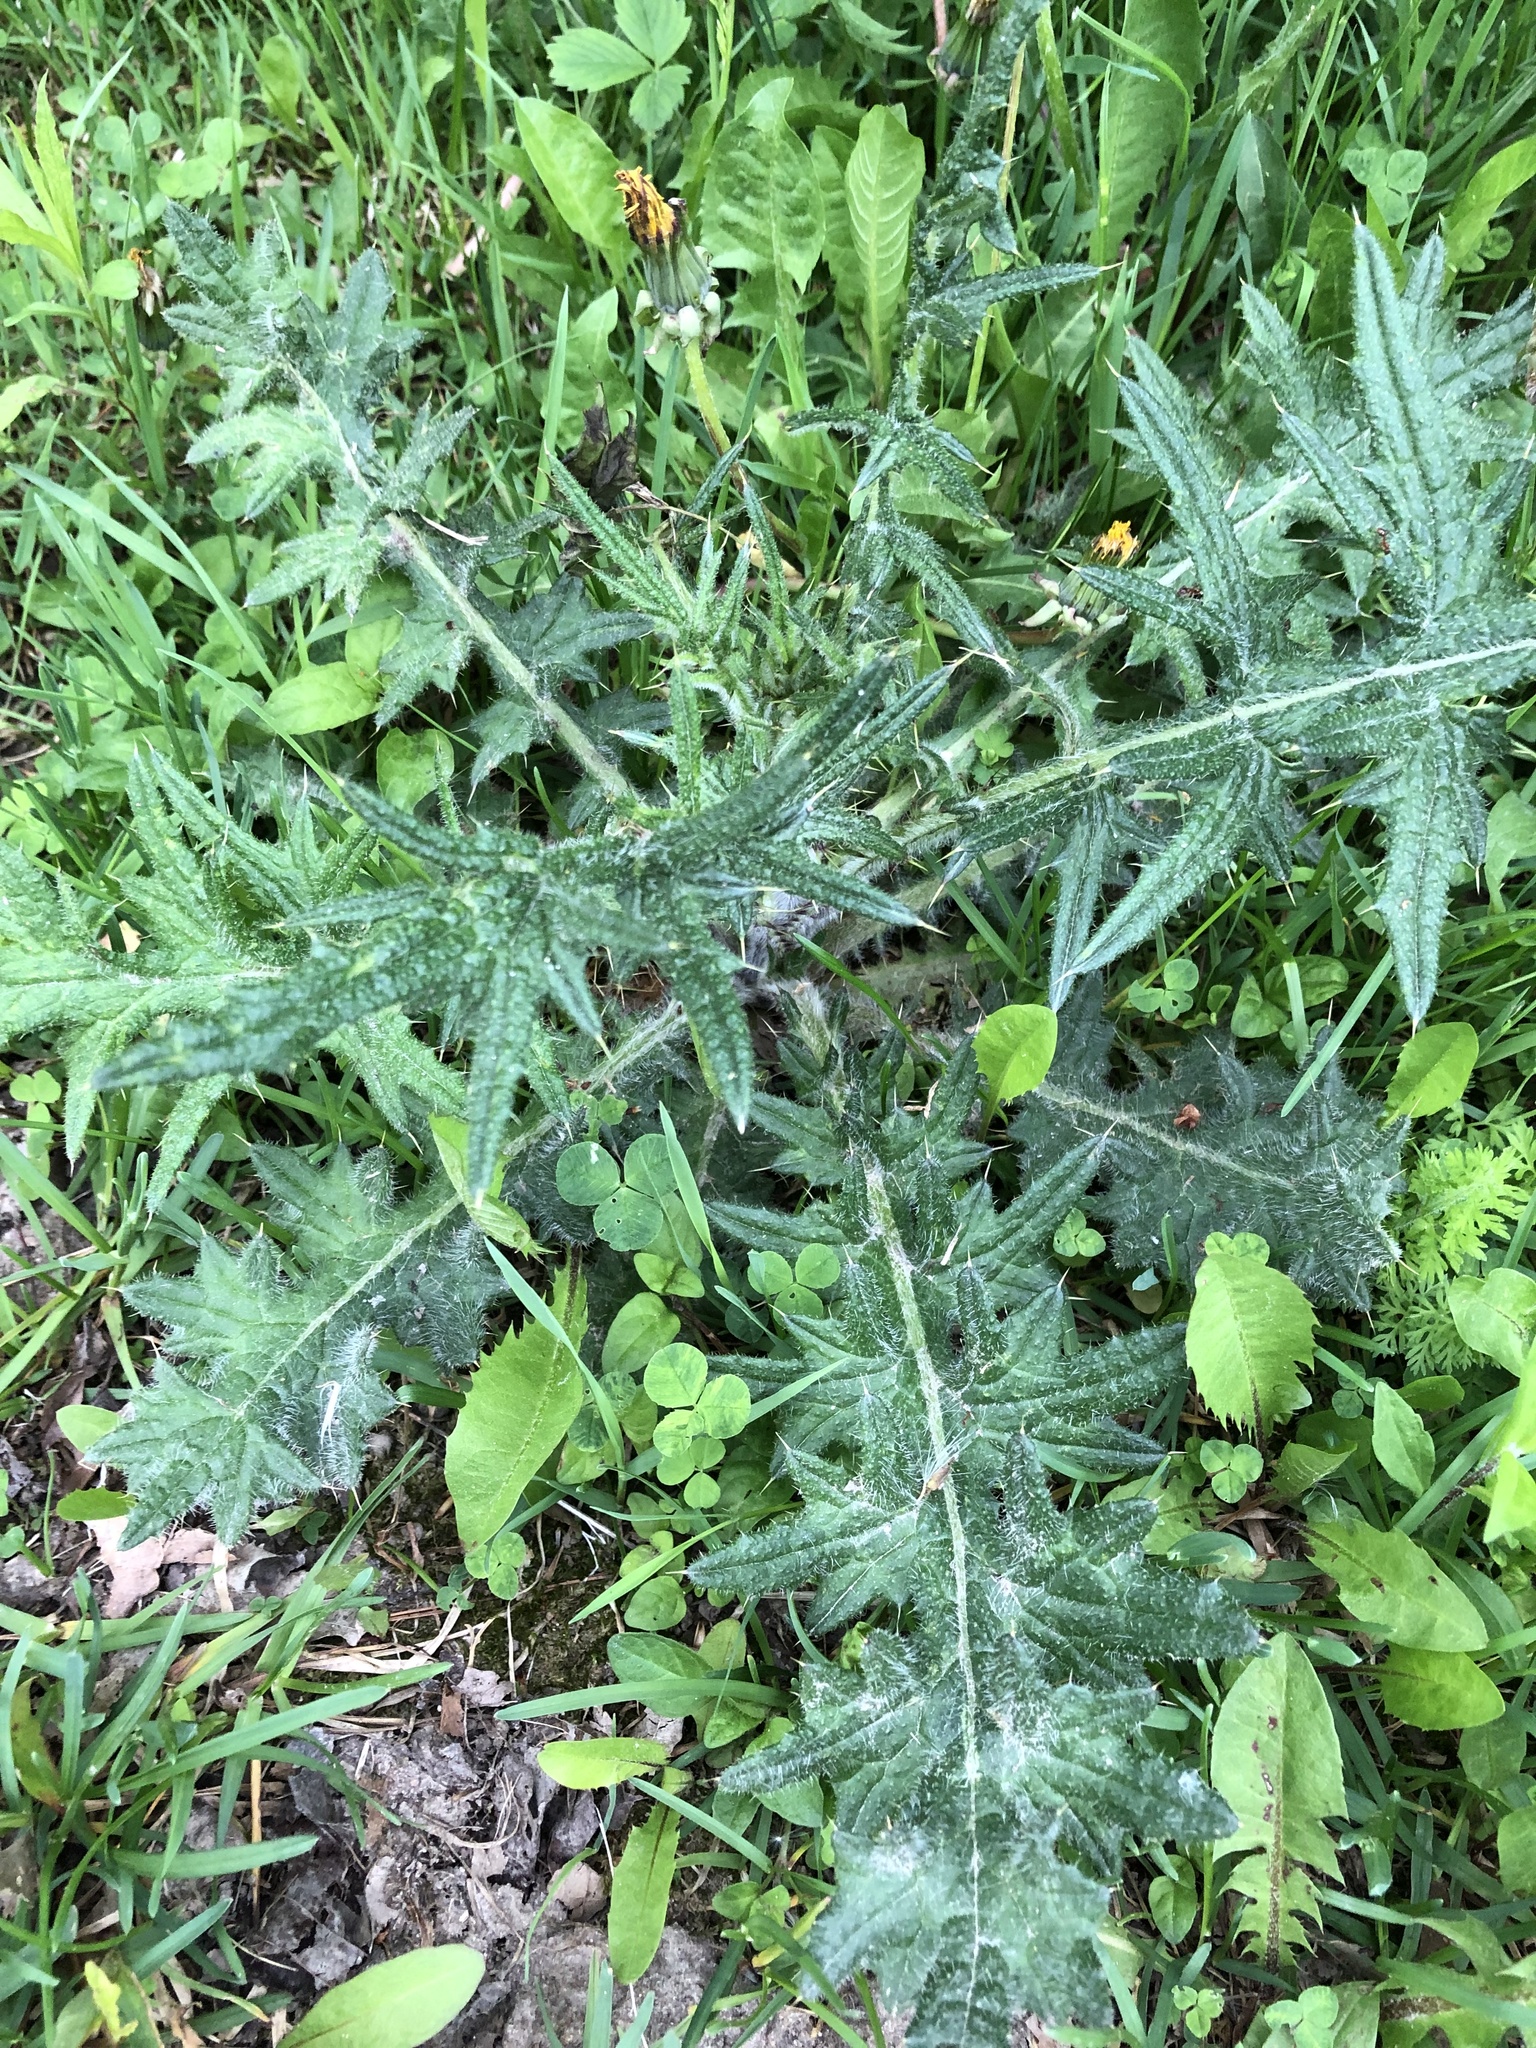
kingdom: Plantae
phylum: Tracheophyta
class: Magnoliopsida
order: Asterales
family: Asteraceae
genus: Cirsium
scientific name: Cirsium vulgare
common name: Bull thistle
